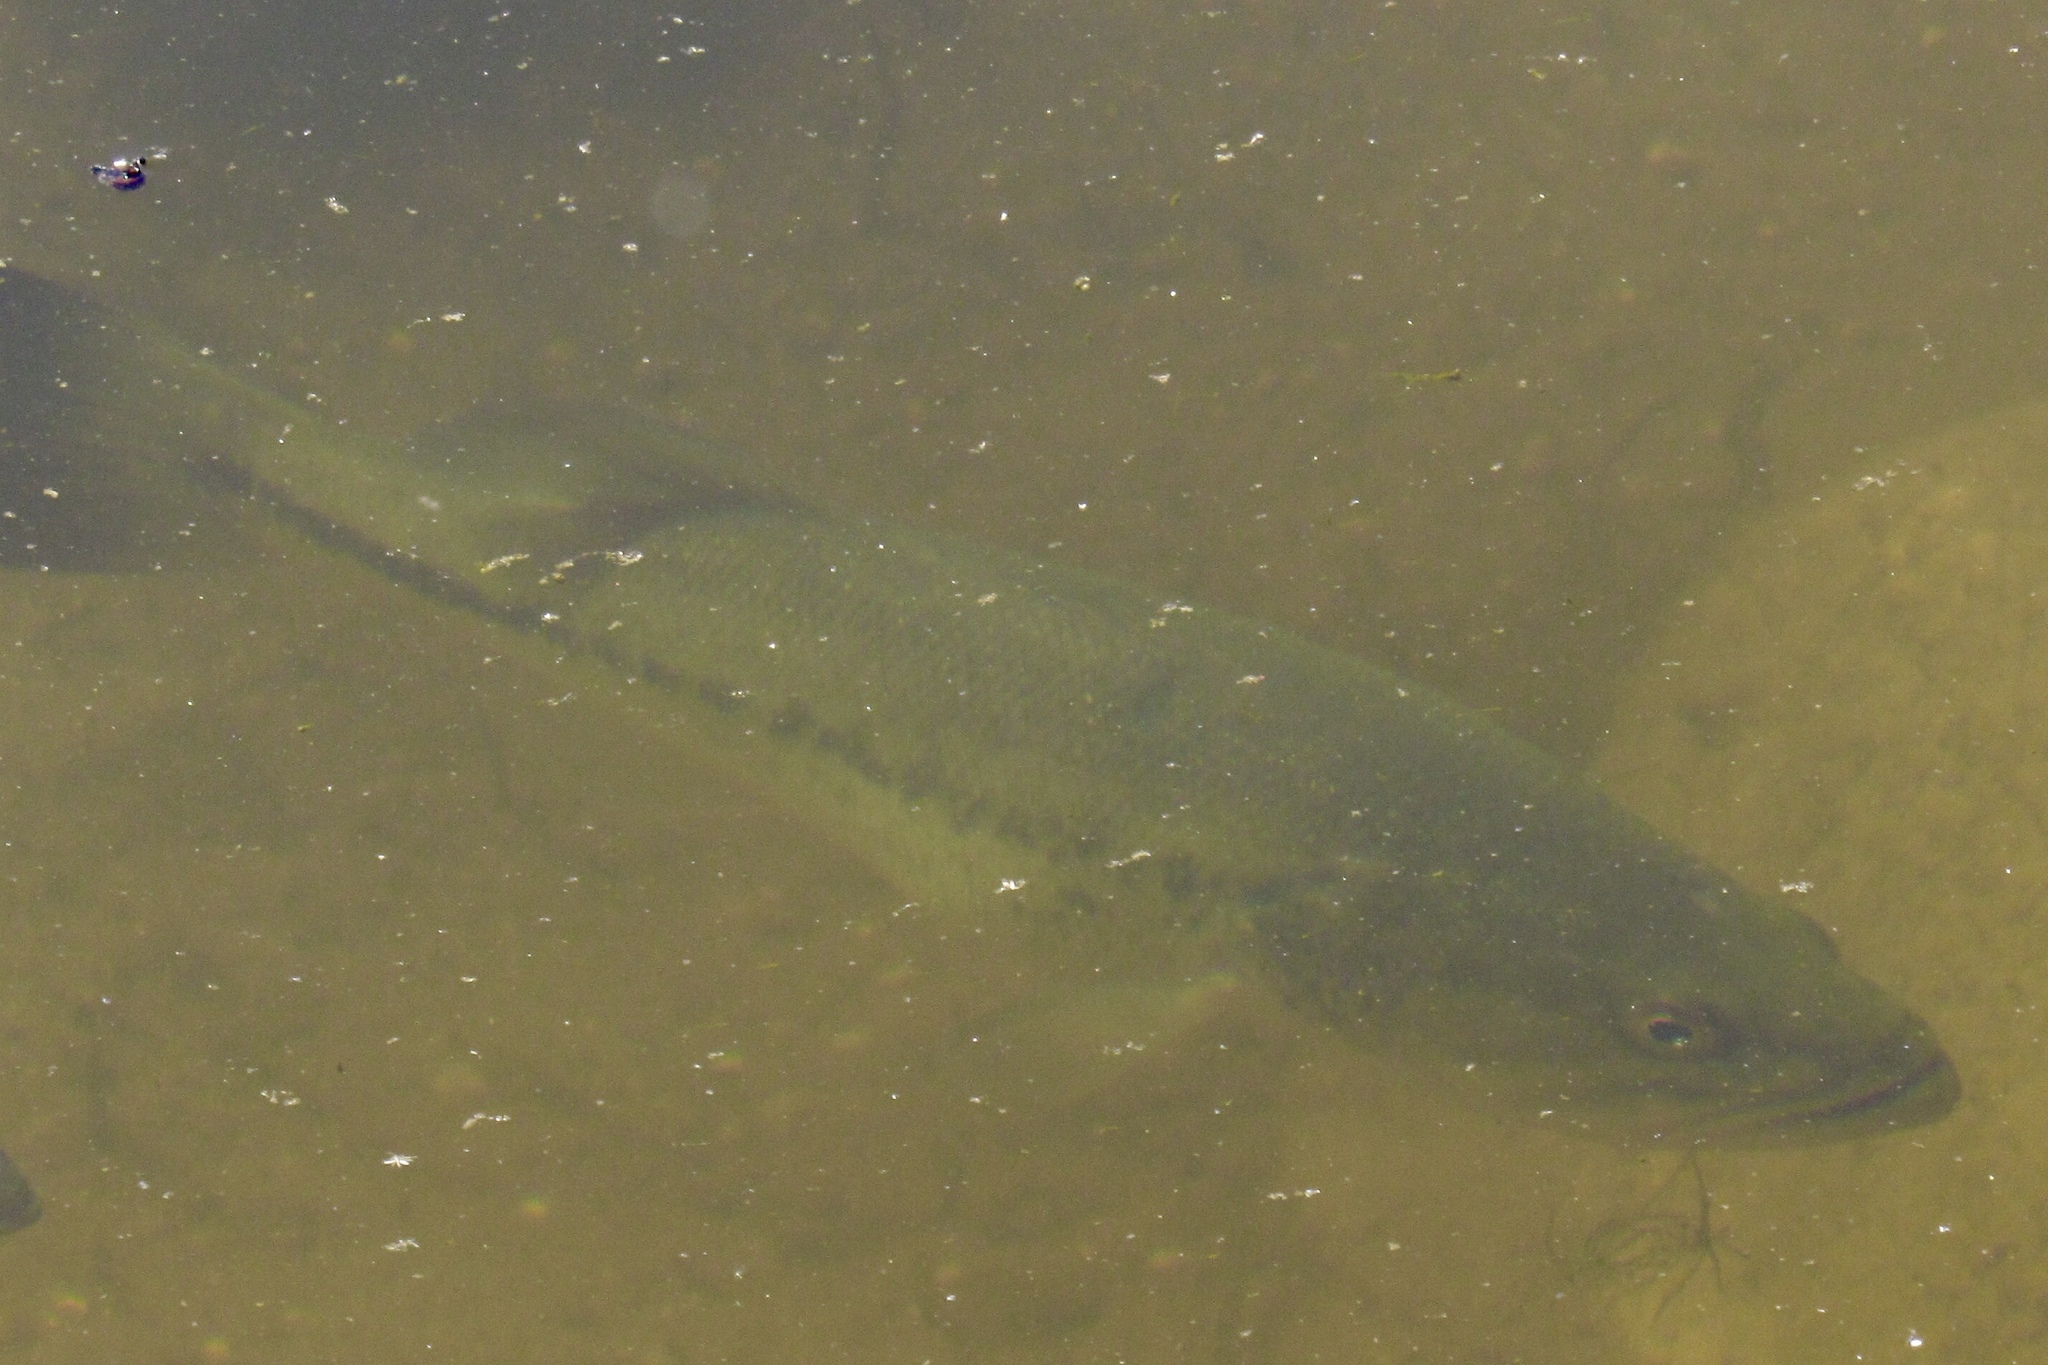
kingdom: Animalia
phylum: Chordata
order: Perciformes
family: Centrarchidae
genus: Micropterus
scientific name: Micropterus
